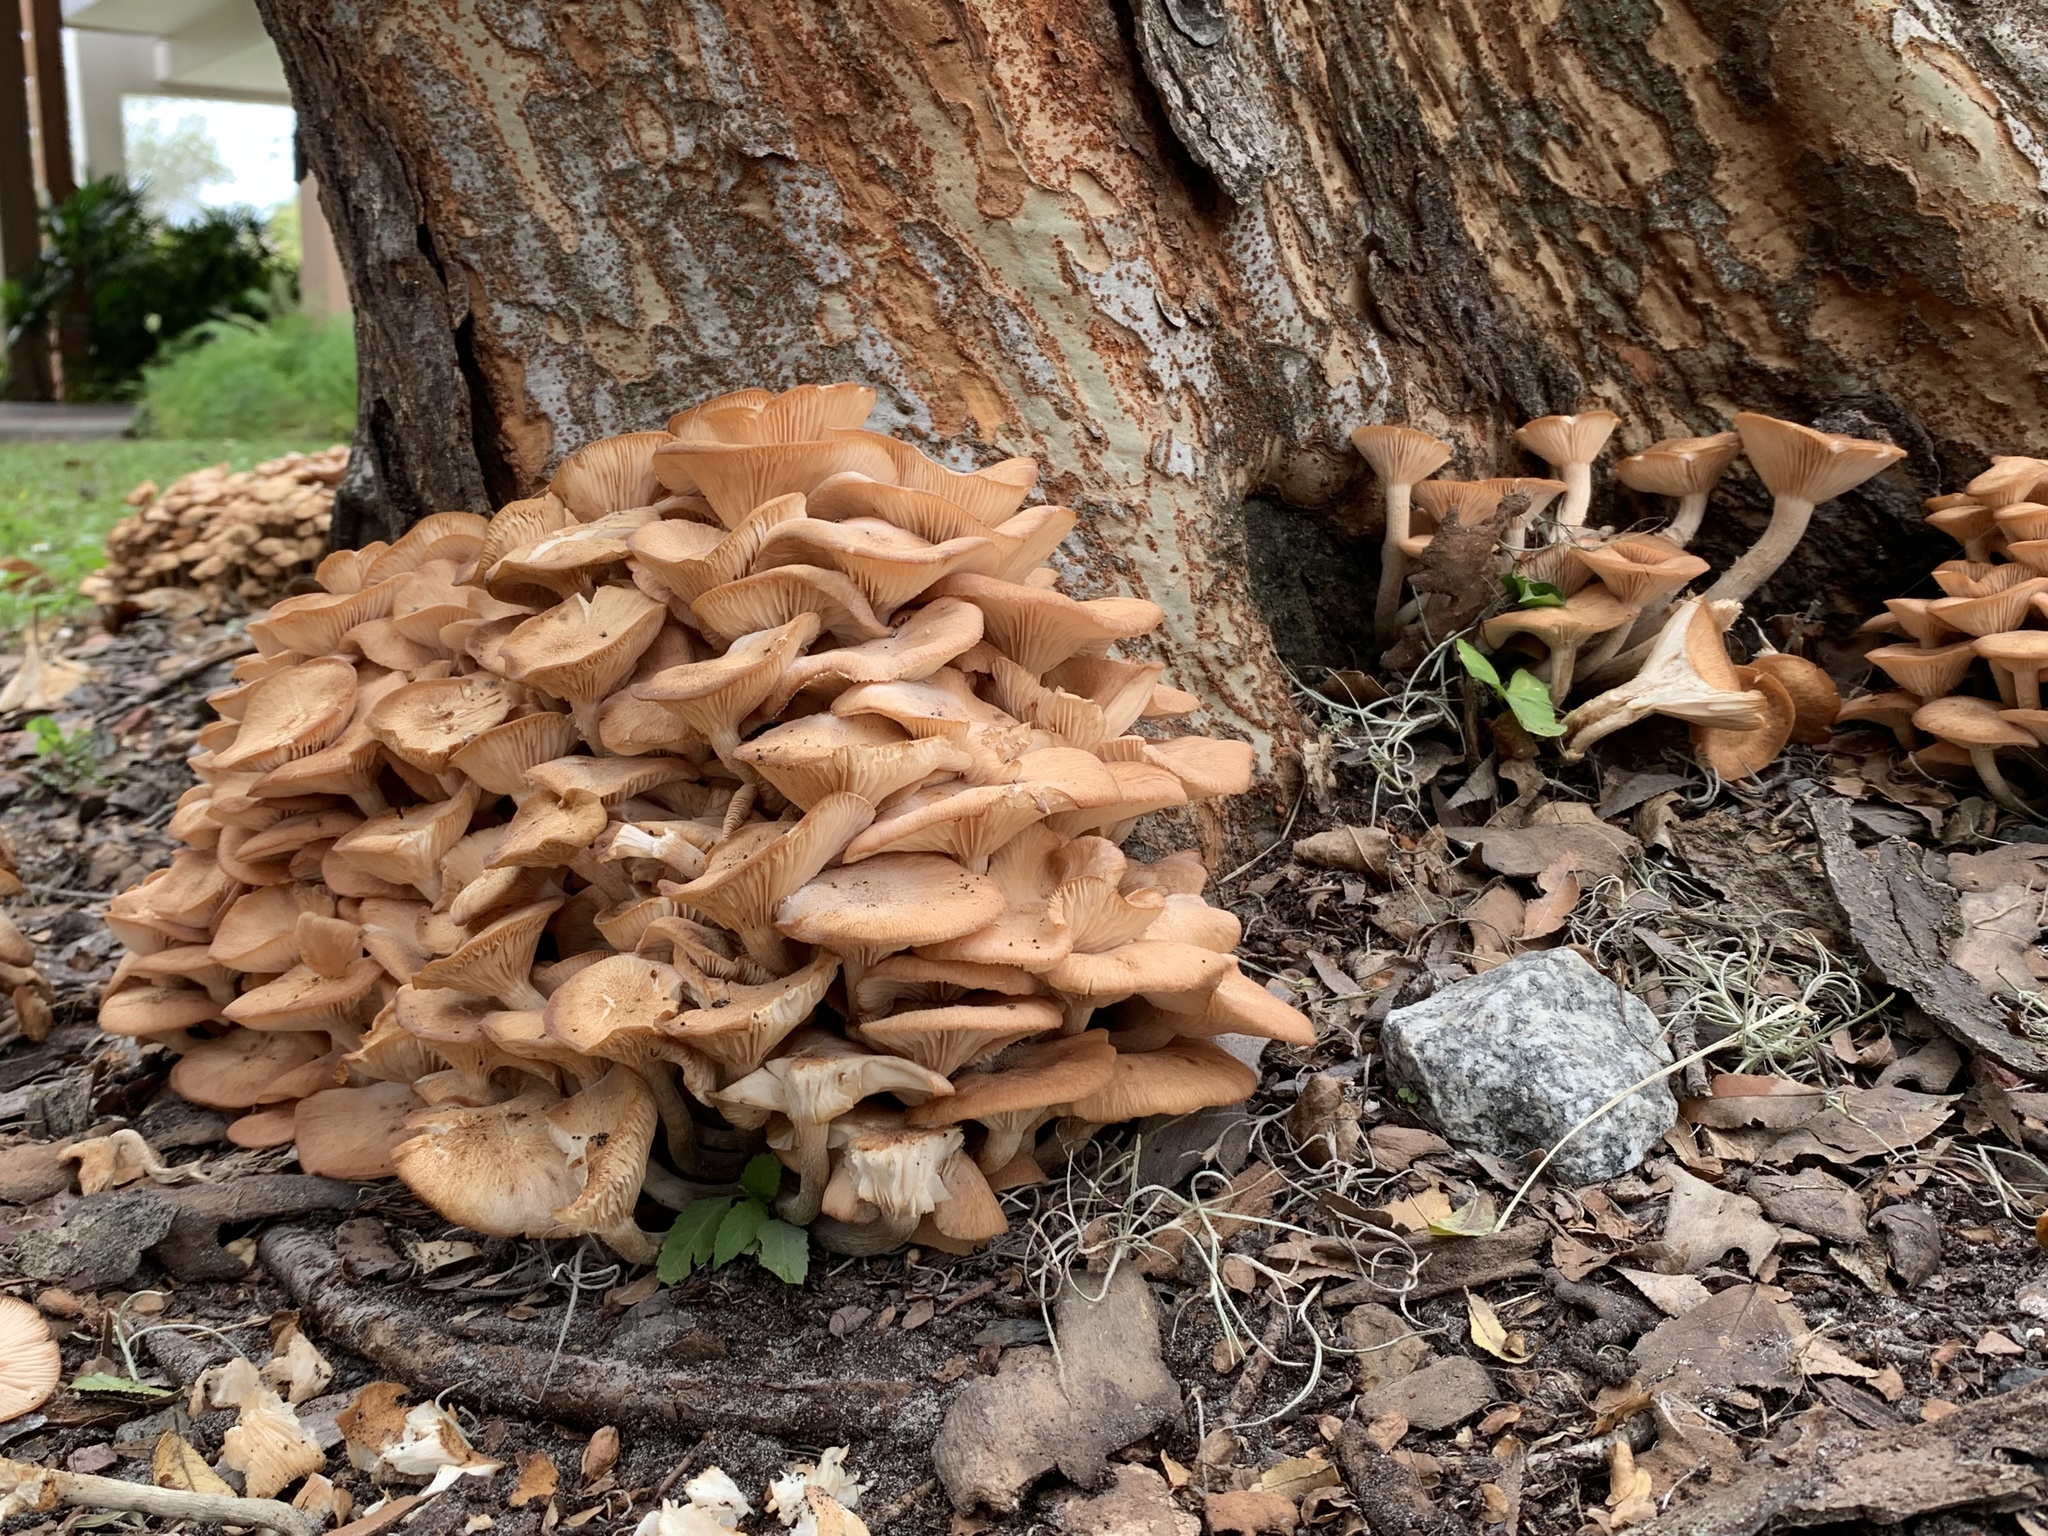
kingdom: Fungi
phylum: Basidiomycota
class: Agaricomycetes
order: Agaricales
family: Physalacriaceae
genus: Desarmillaria
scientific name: Desarmillaria caespitosa
